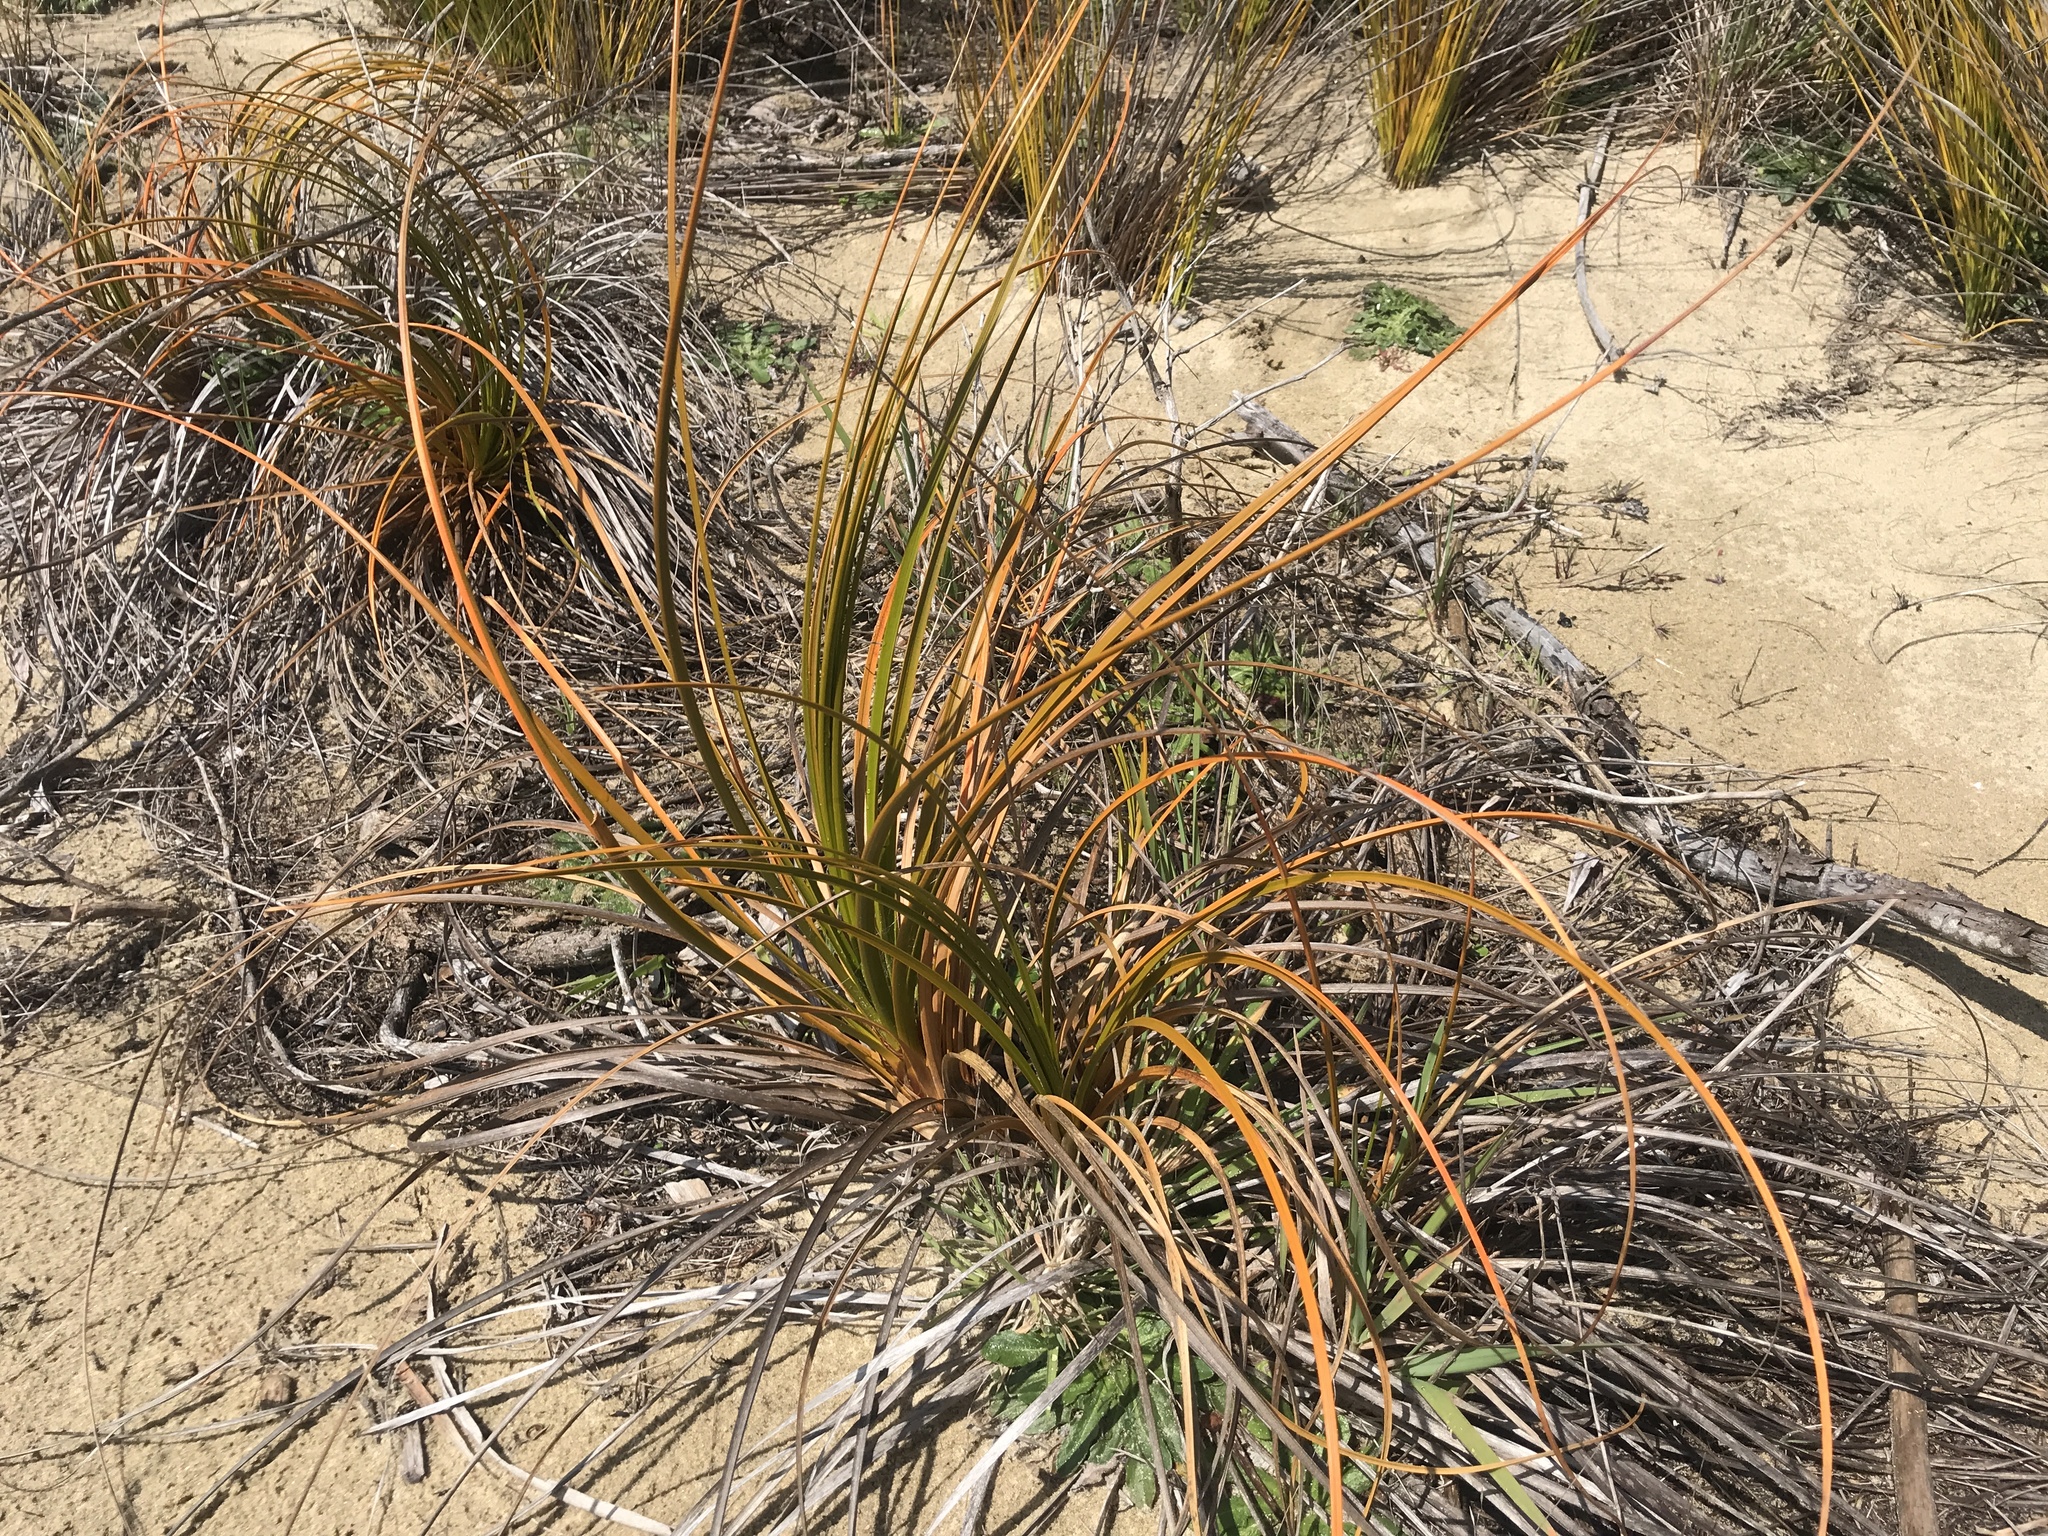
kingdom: Plantae
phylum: Tracheophyta
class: Liliopsida
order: Poales
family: Cyperaceae
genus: Ficinia
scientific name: Ficinia spiralis
